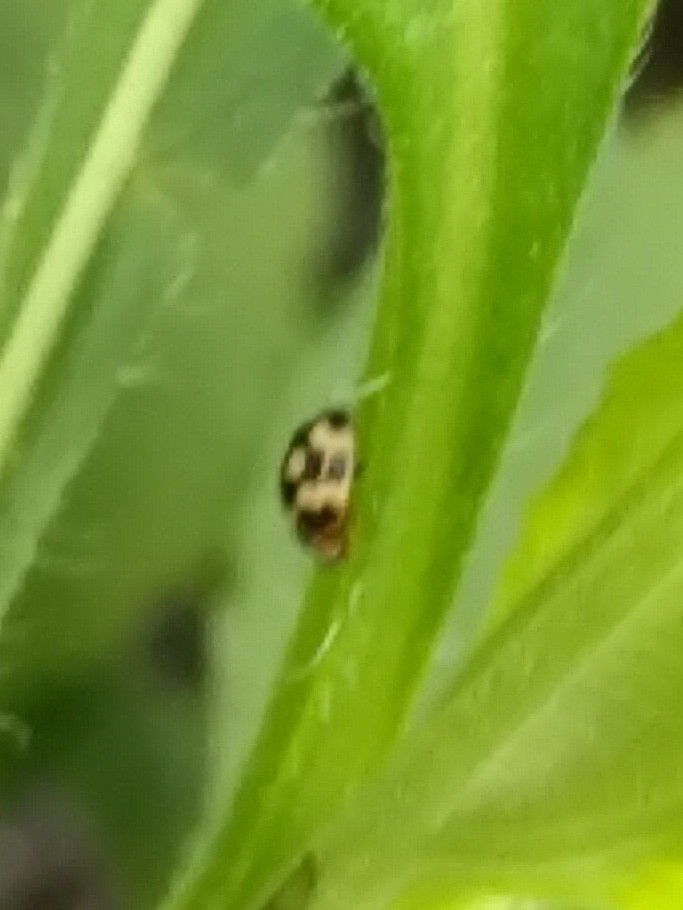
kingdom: Animalia
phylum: Arthropoda
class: Insecta
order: Coleoptera
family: Coccinellidae
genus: Propylaea
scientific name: Propylaea quatuordecimpunctata
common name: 14-spotted ladybird beetle
